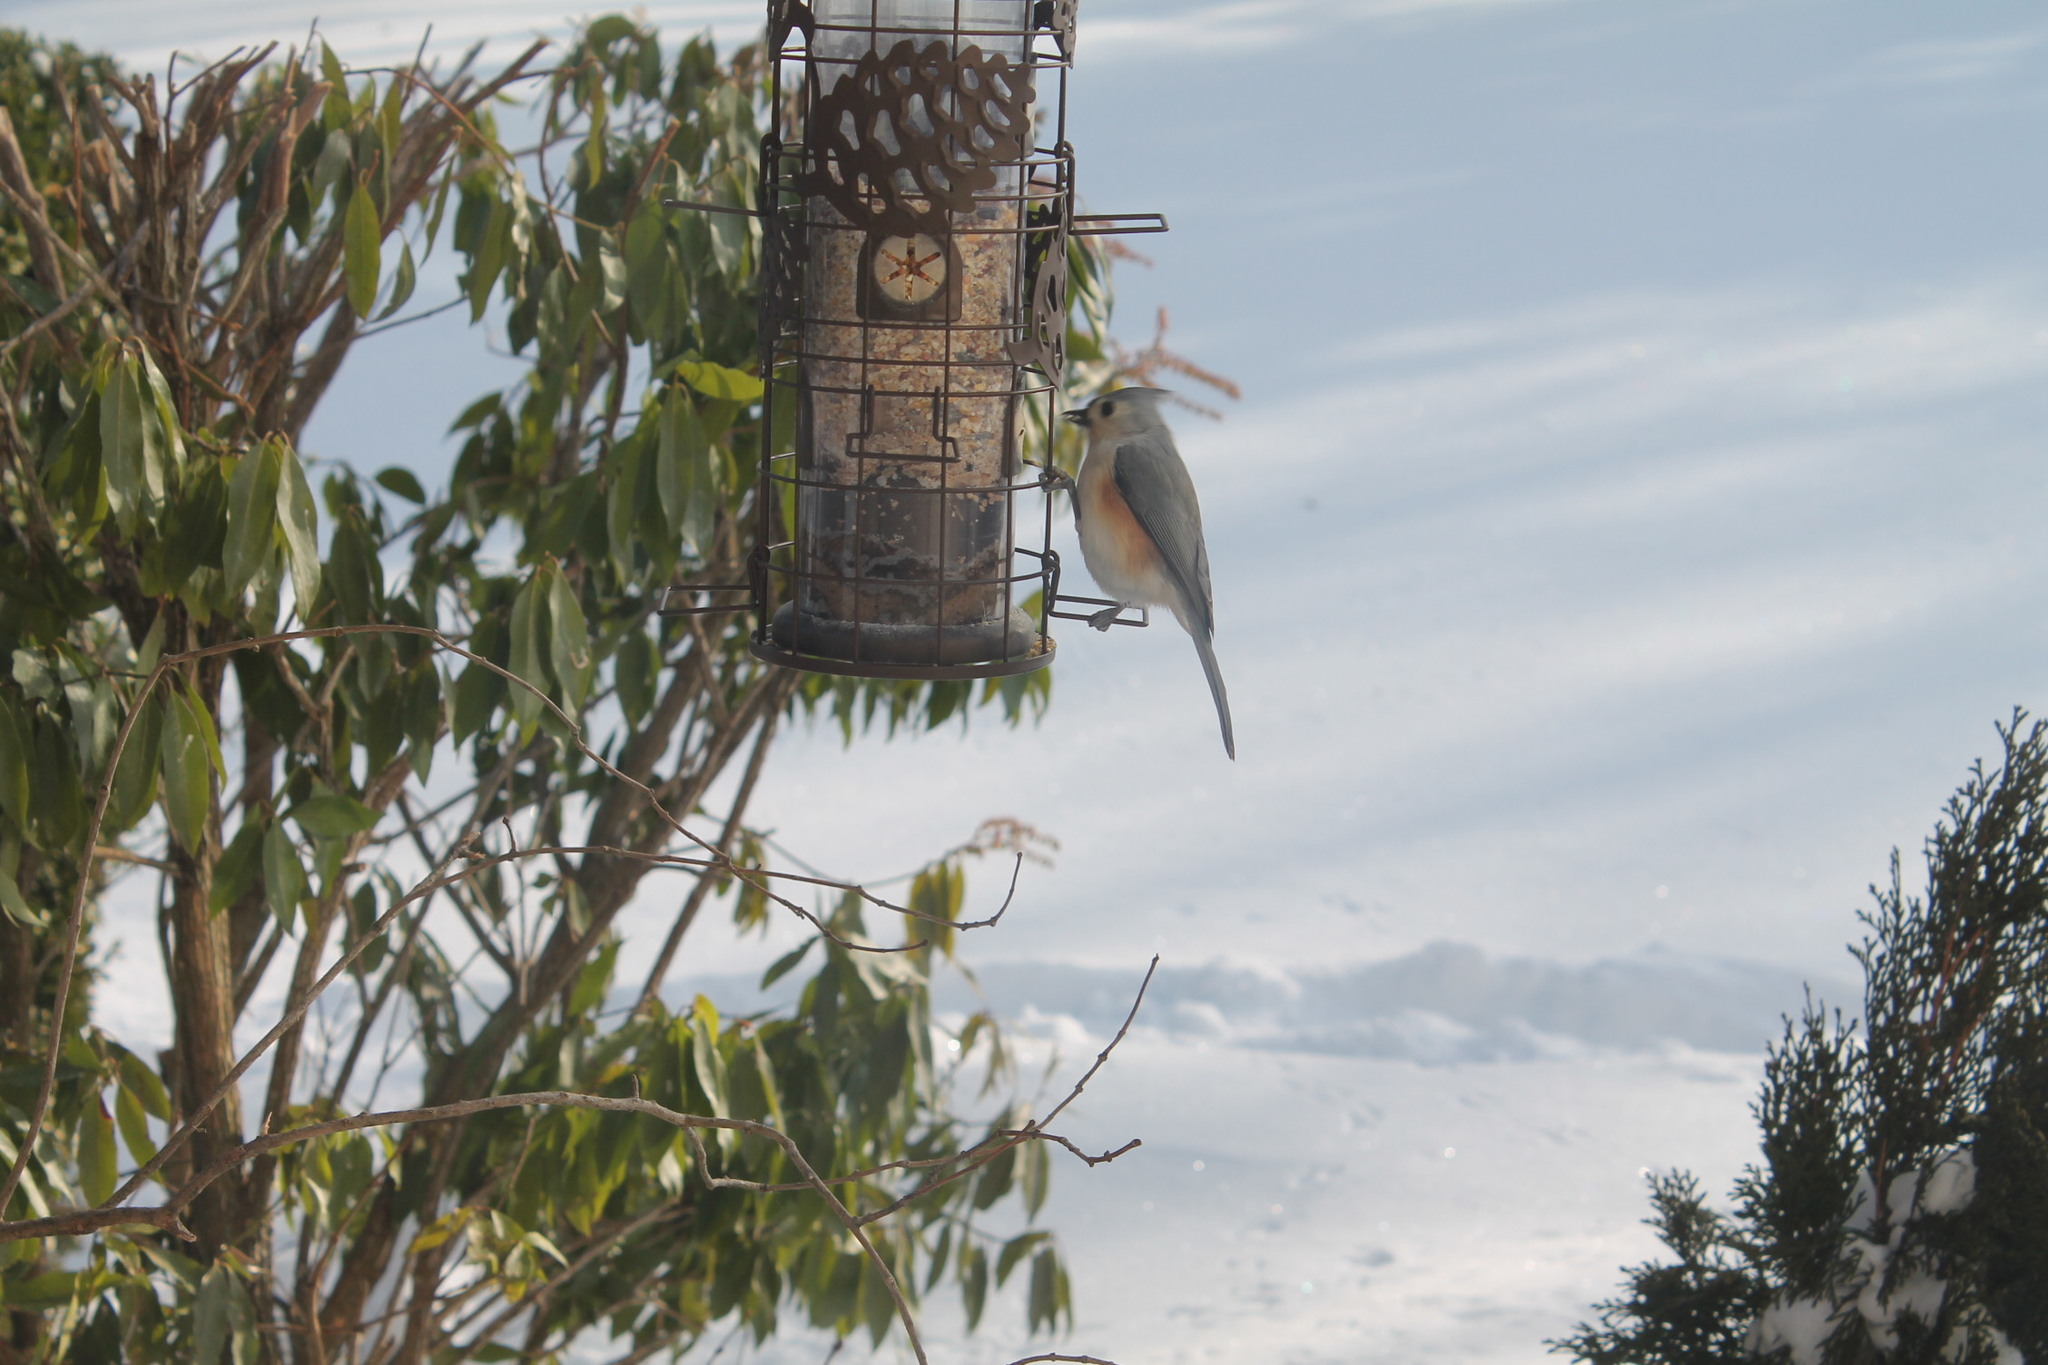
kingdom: Animalia
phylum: Chordata
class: Aves
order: Passeriformes
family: Paridae
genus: Baeolophus
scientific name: Baeolophus bicolor
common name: Tufted titmouse
